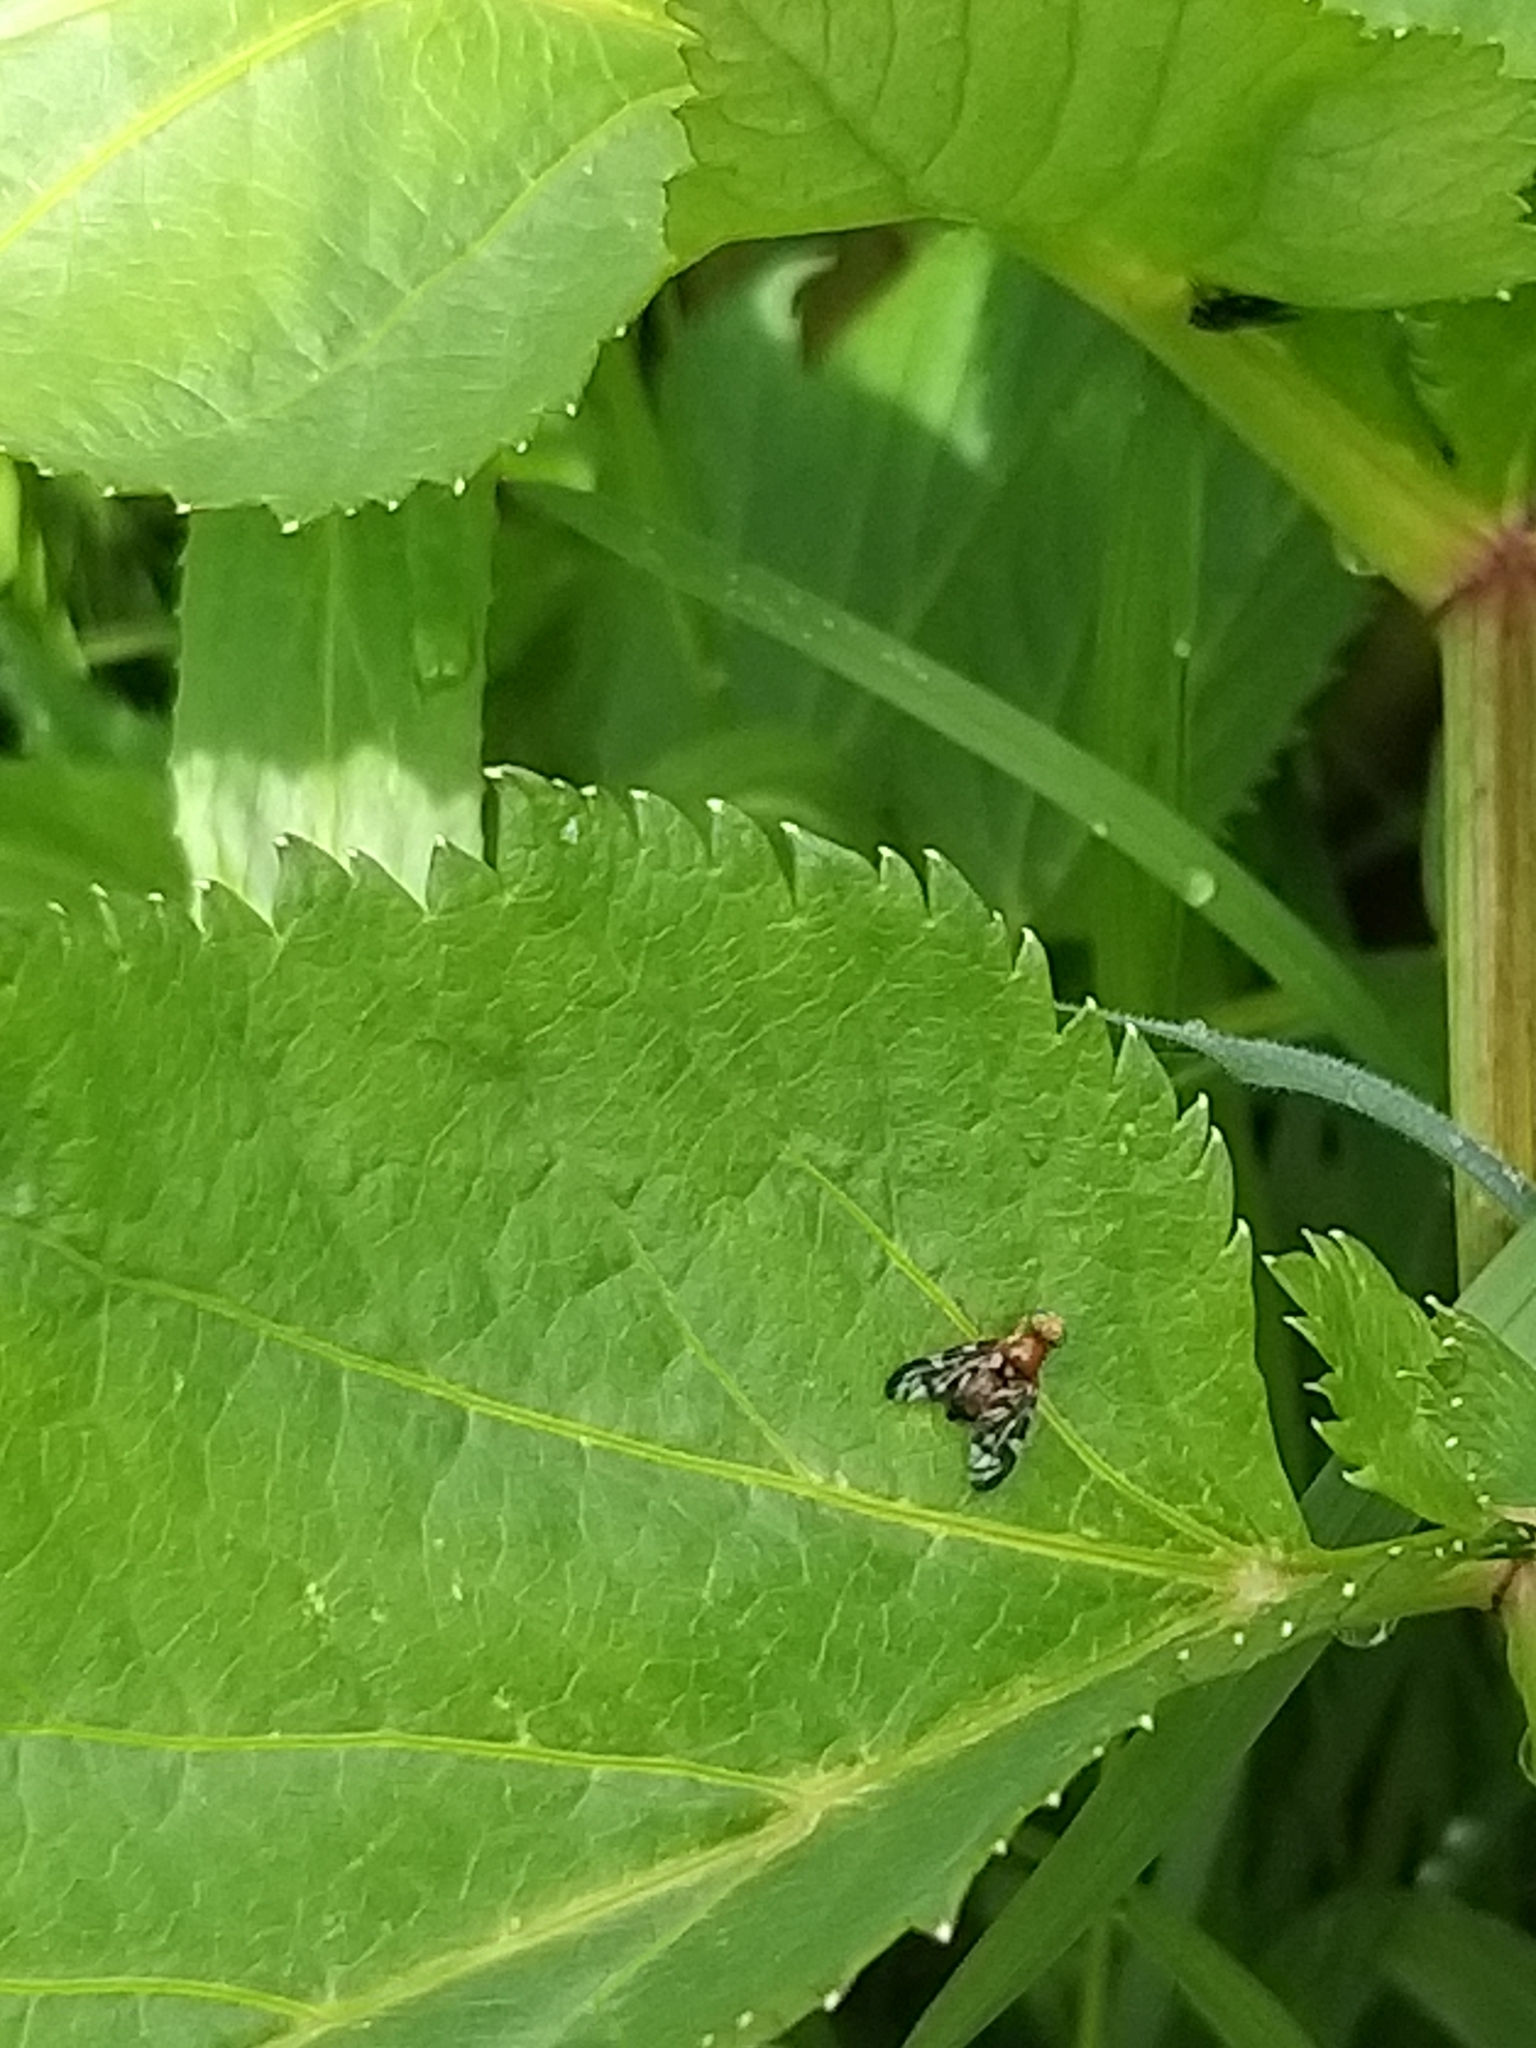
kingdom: Animalia
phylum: Arthropoda
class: Insecta
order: Diptera
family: Tephritidae
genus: Euleia
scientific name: Euleia heraclei
